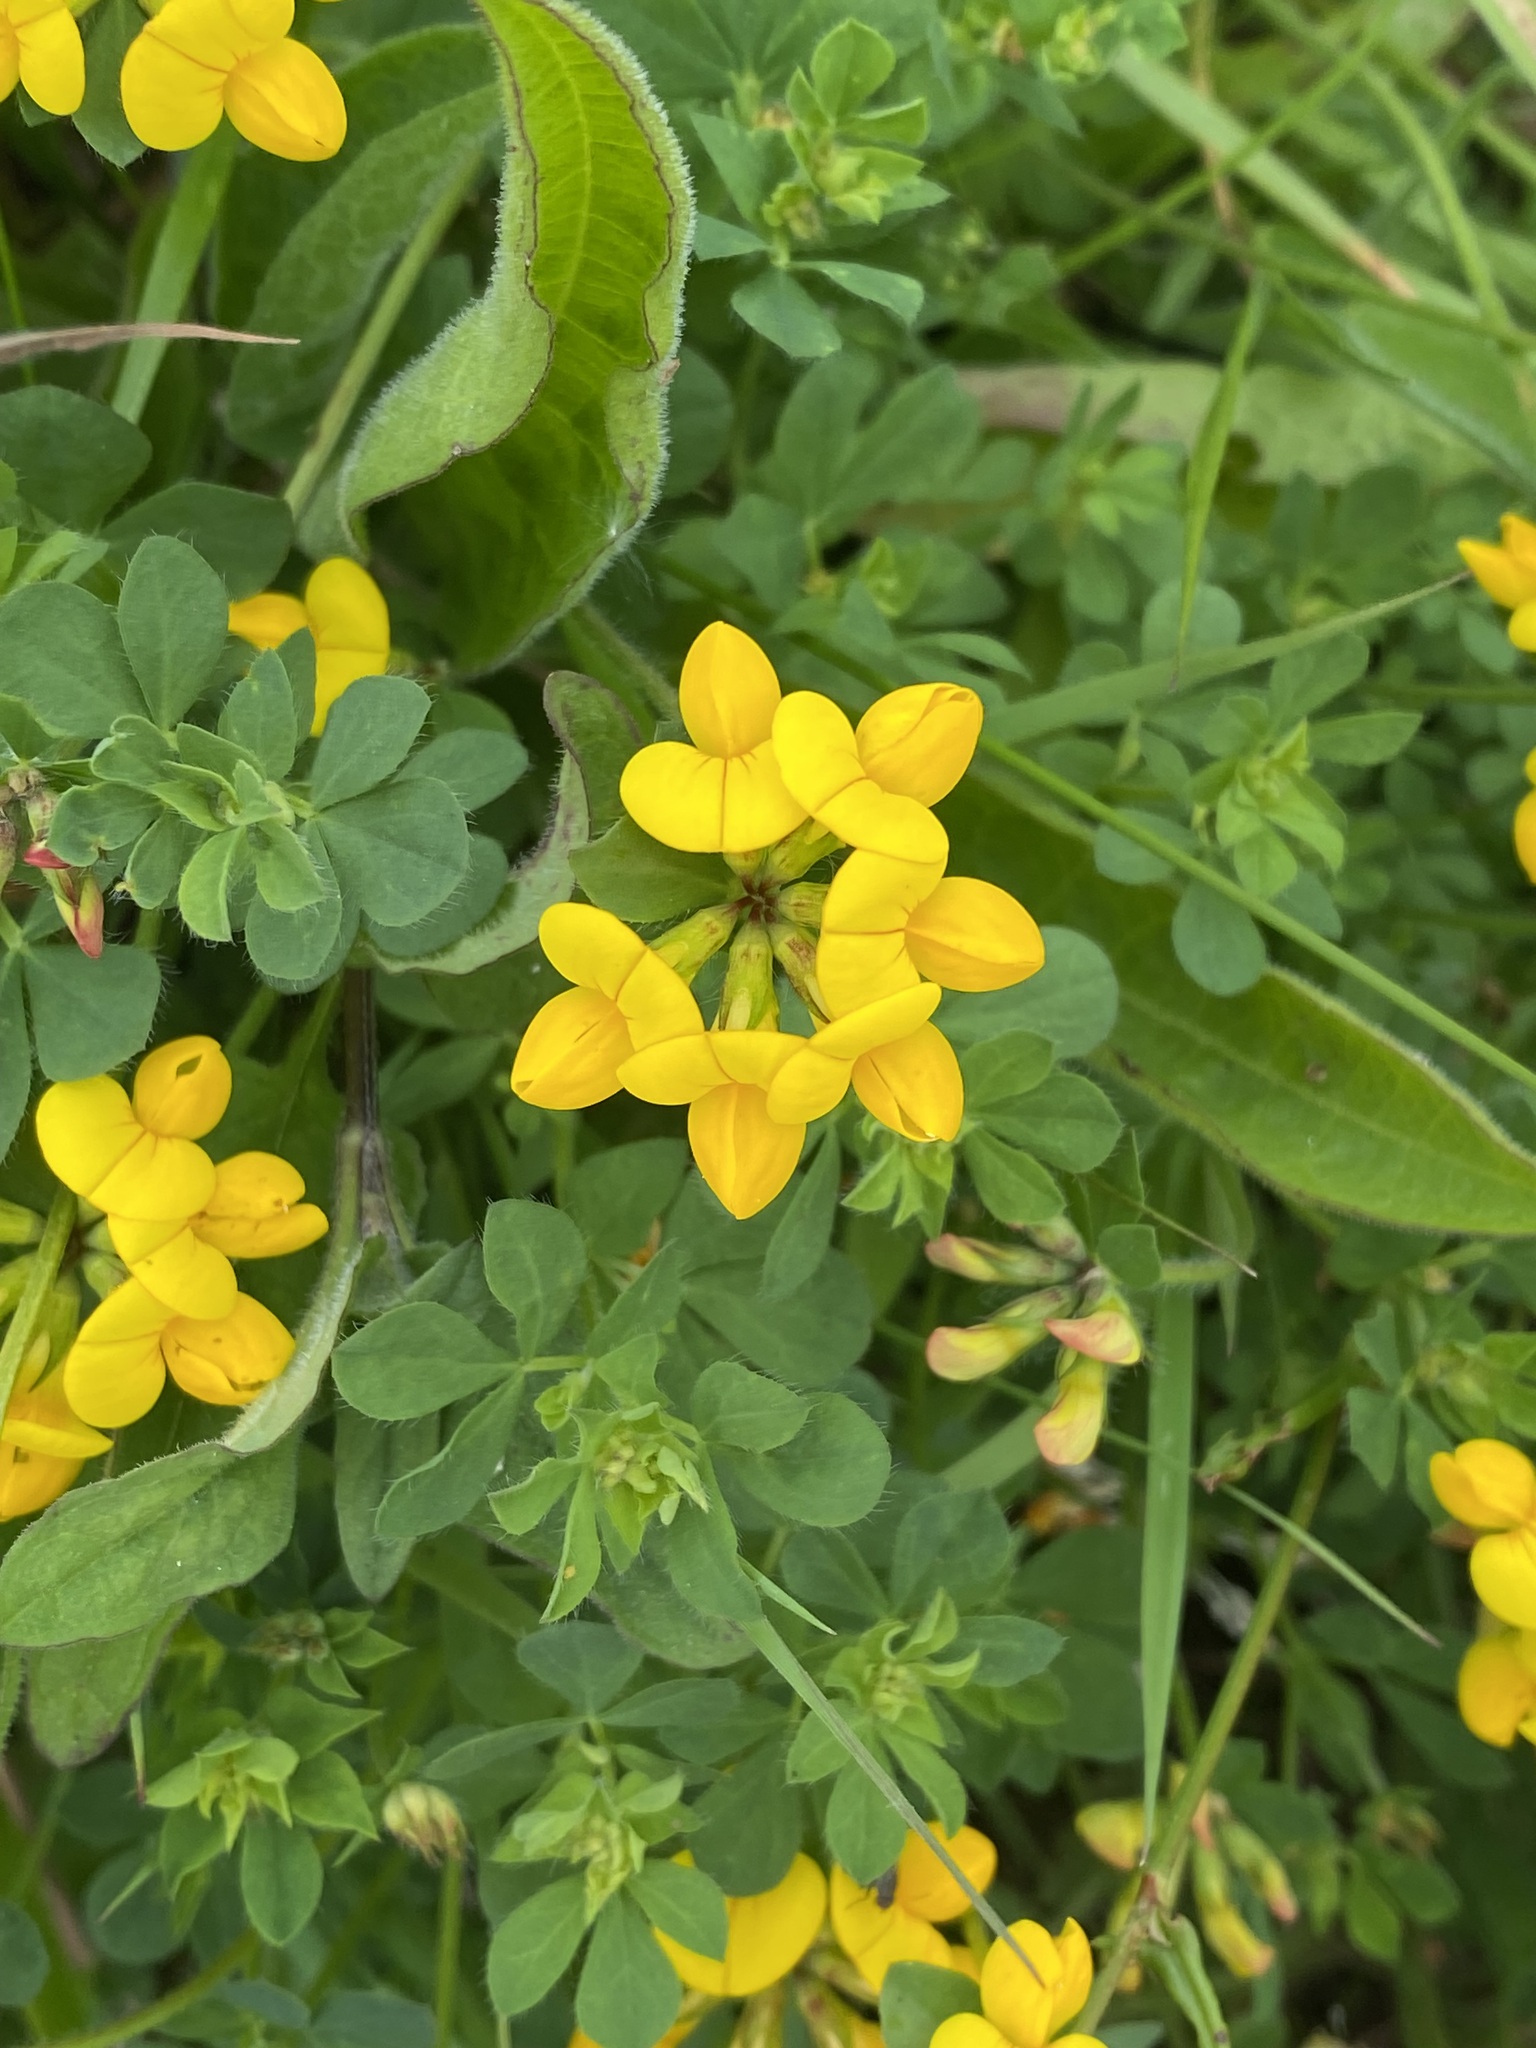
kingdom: Plantae
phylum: Tracheophyta
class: Magnoliopsida
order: Fabales
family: Fabaceae
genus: Lotus
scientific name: Lotus corniculatus
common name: Common bird's-foot-trefoil
